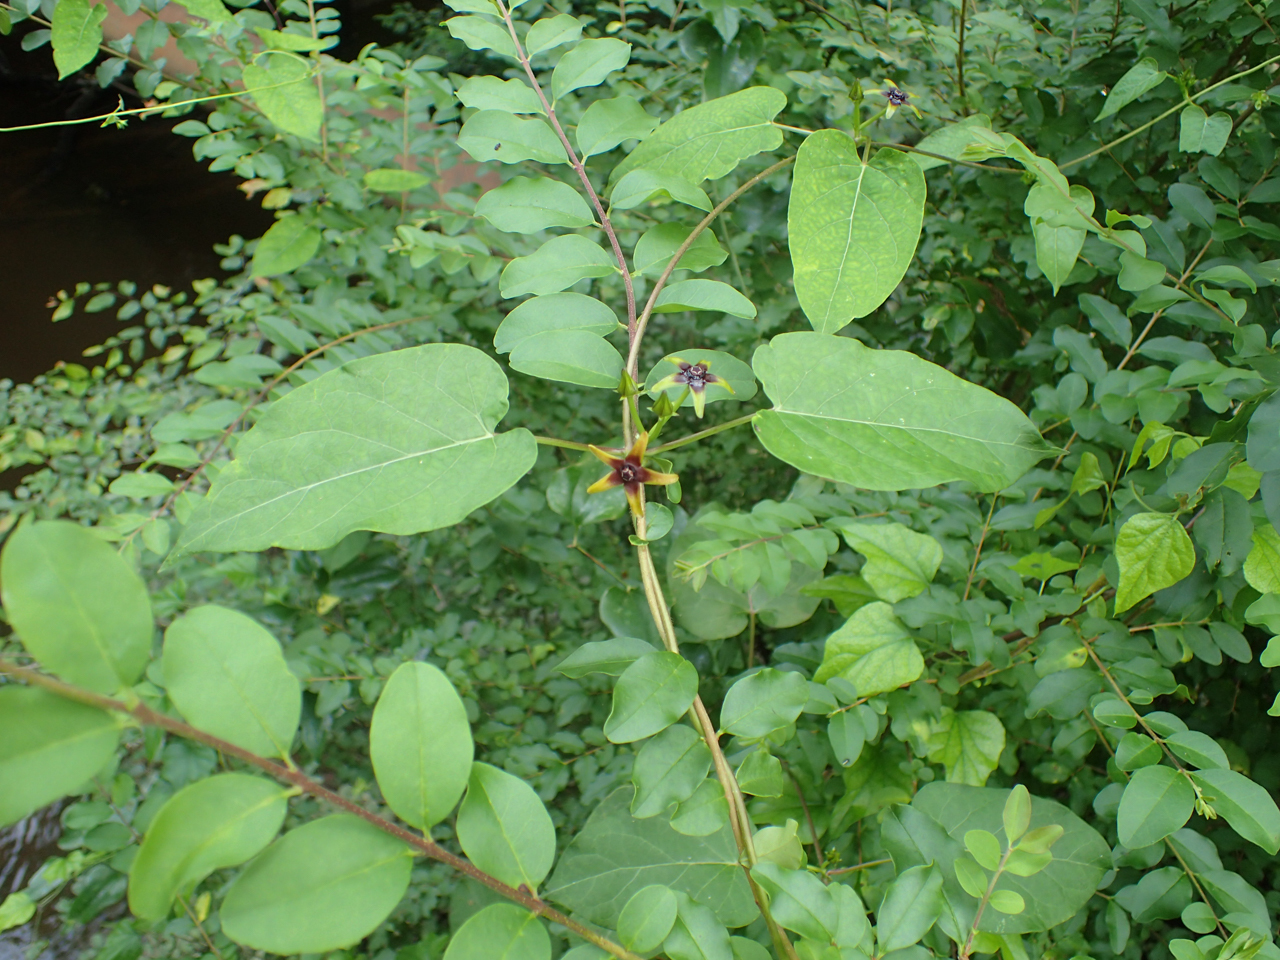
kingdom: Plantae
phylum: Tracheophyta
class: Magnoliopsida
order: Gentianales
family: Apocynaceae
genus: Gonolobus
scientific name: Gonolobus suberosus
